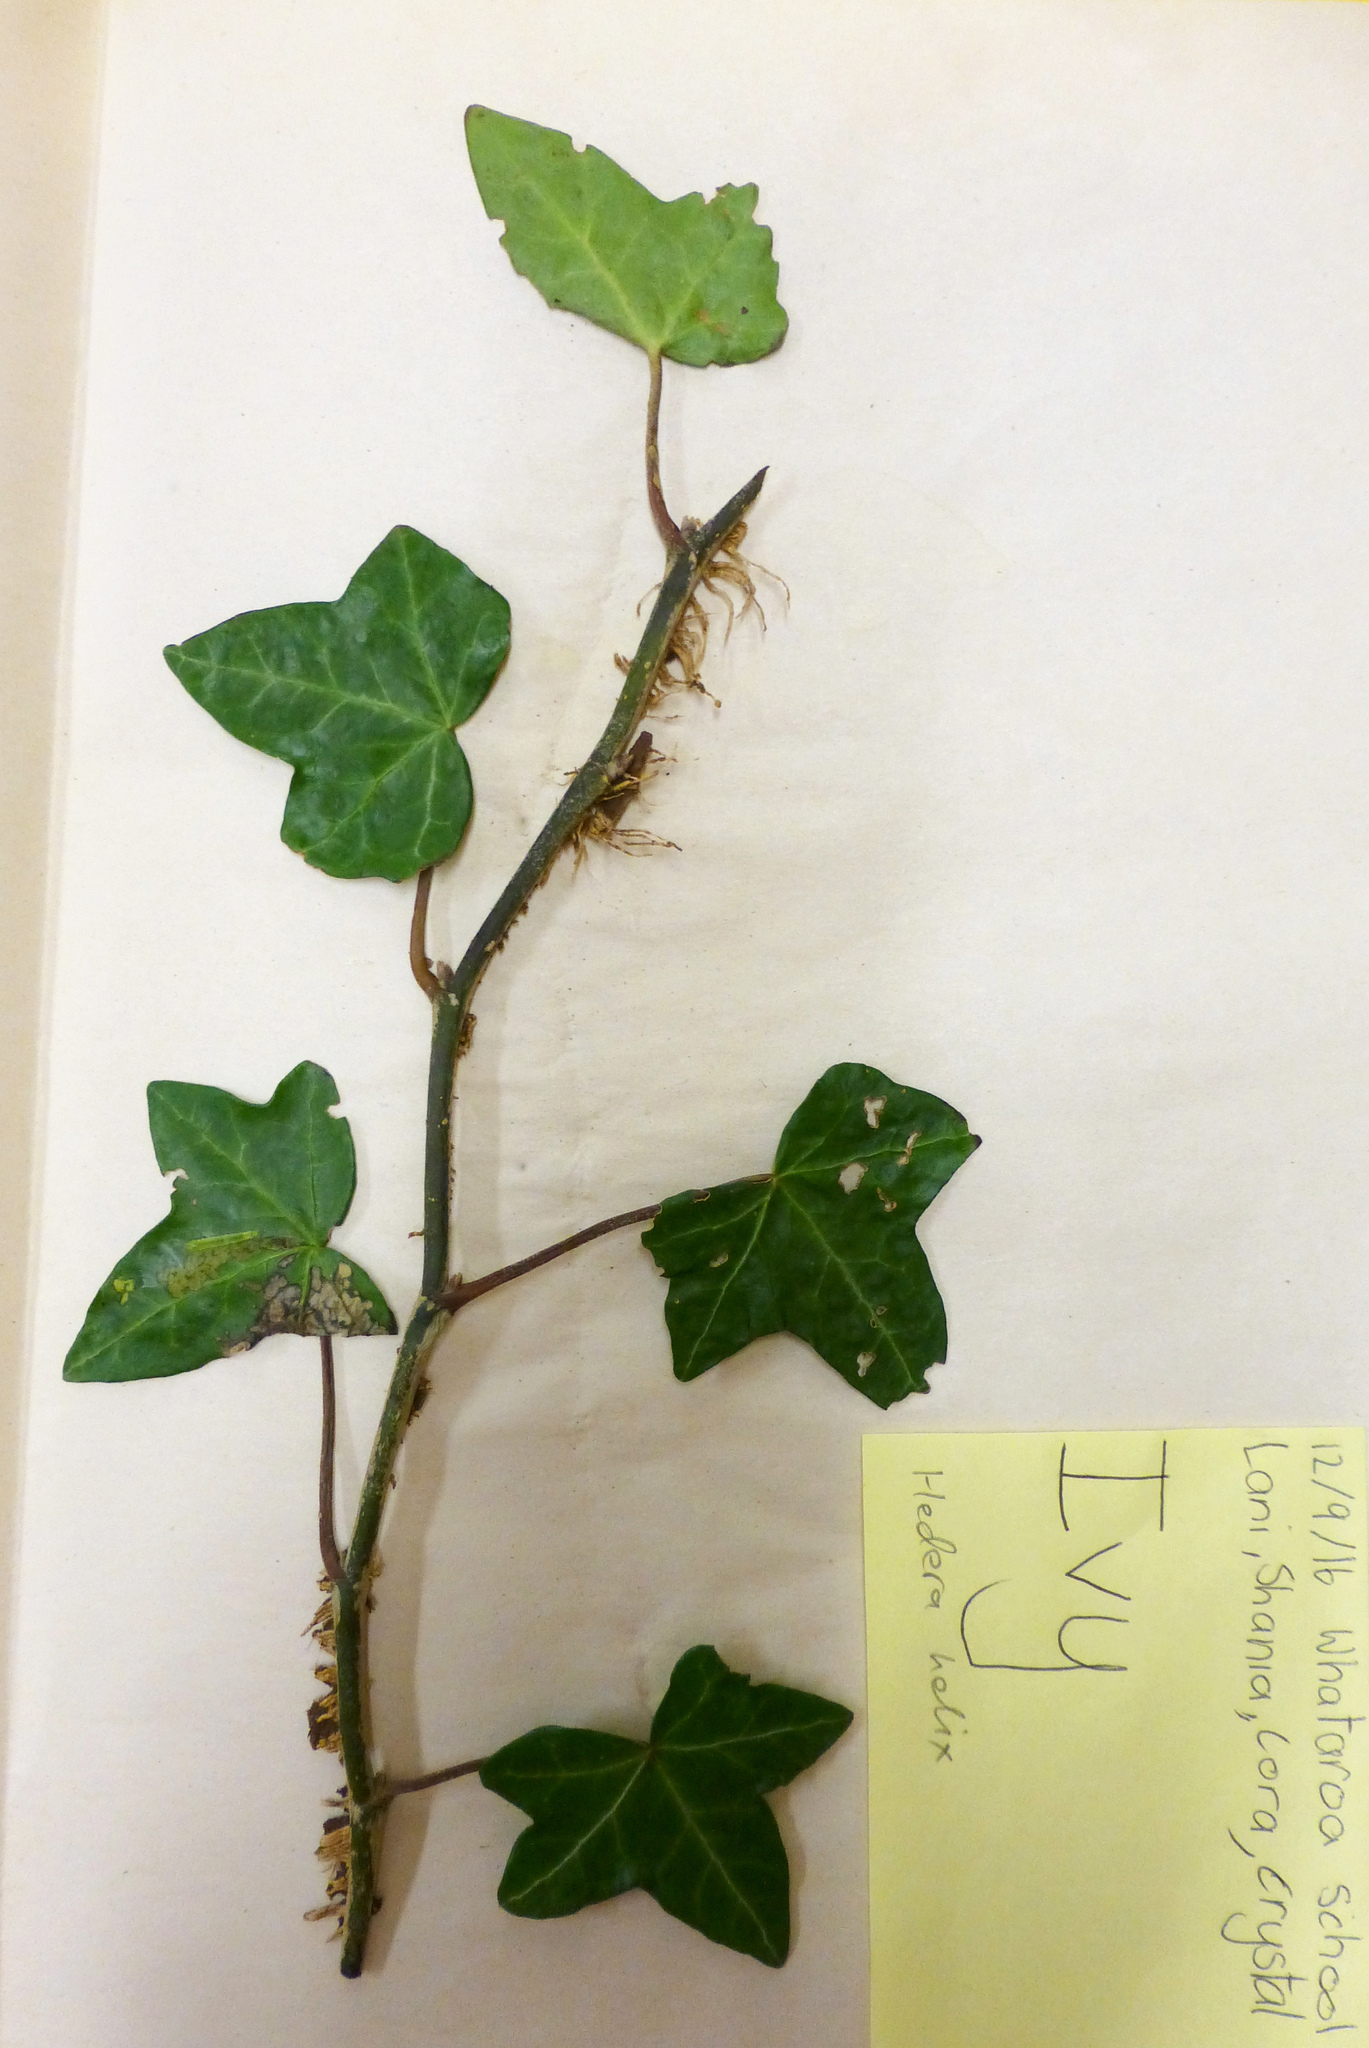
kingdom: Plantae
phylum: Tracheophyta
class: Magnoliopsida
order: Apiales
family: Araliaceae
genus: Hedera
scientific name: Hedera helix
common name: Ivy
